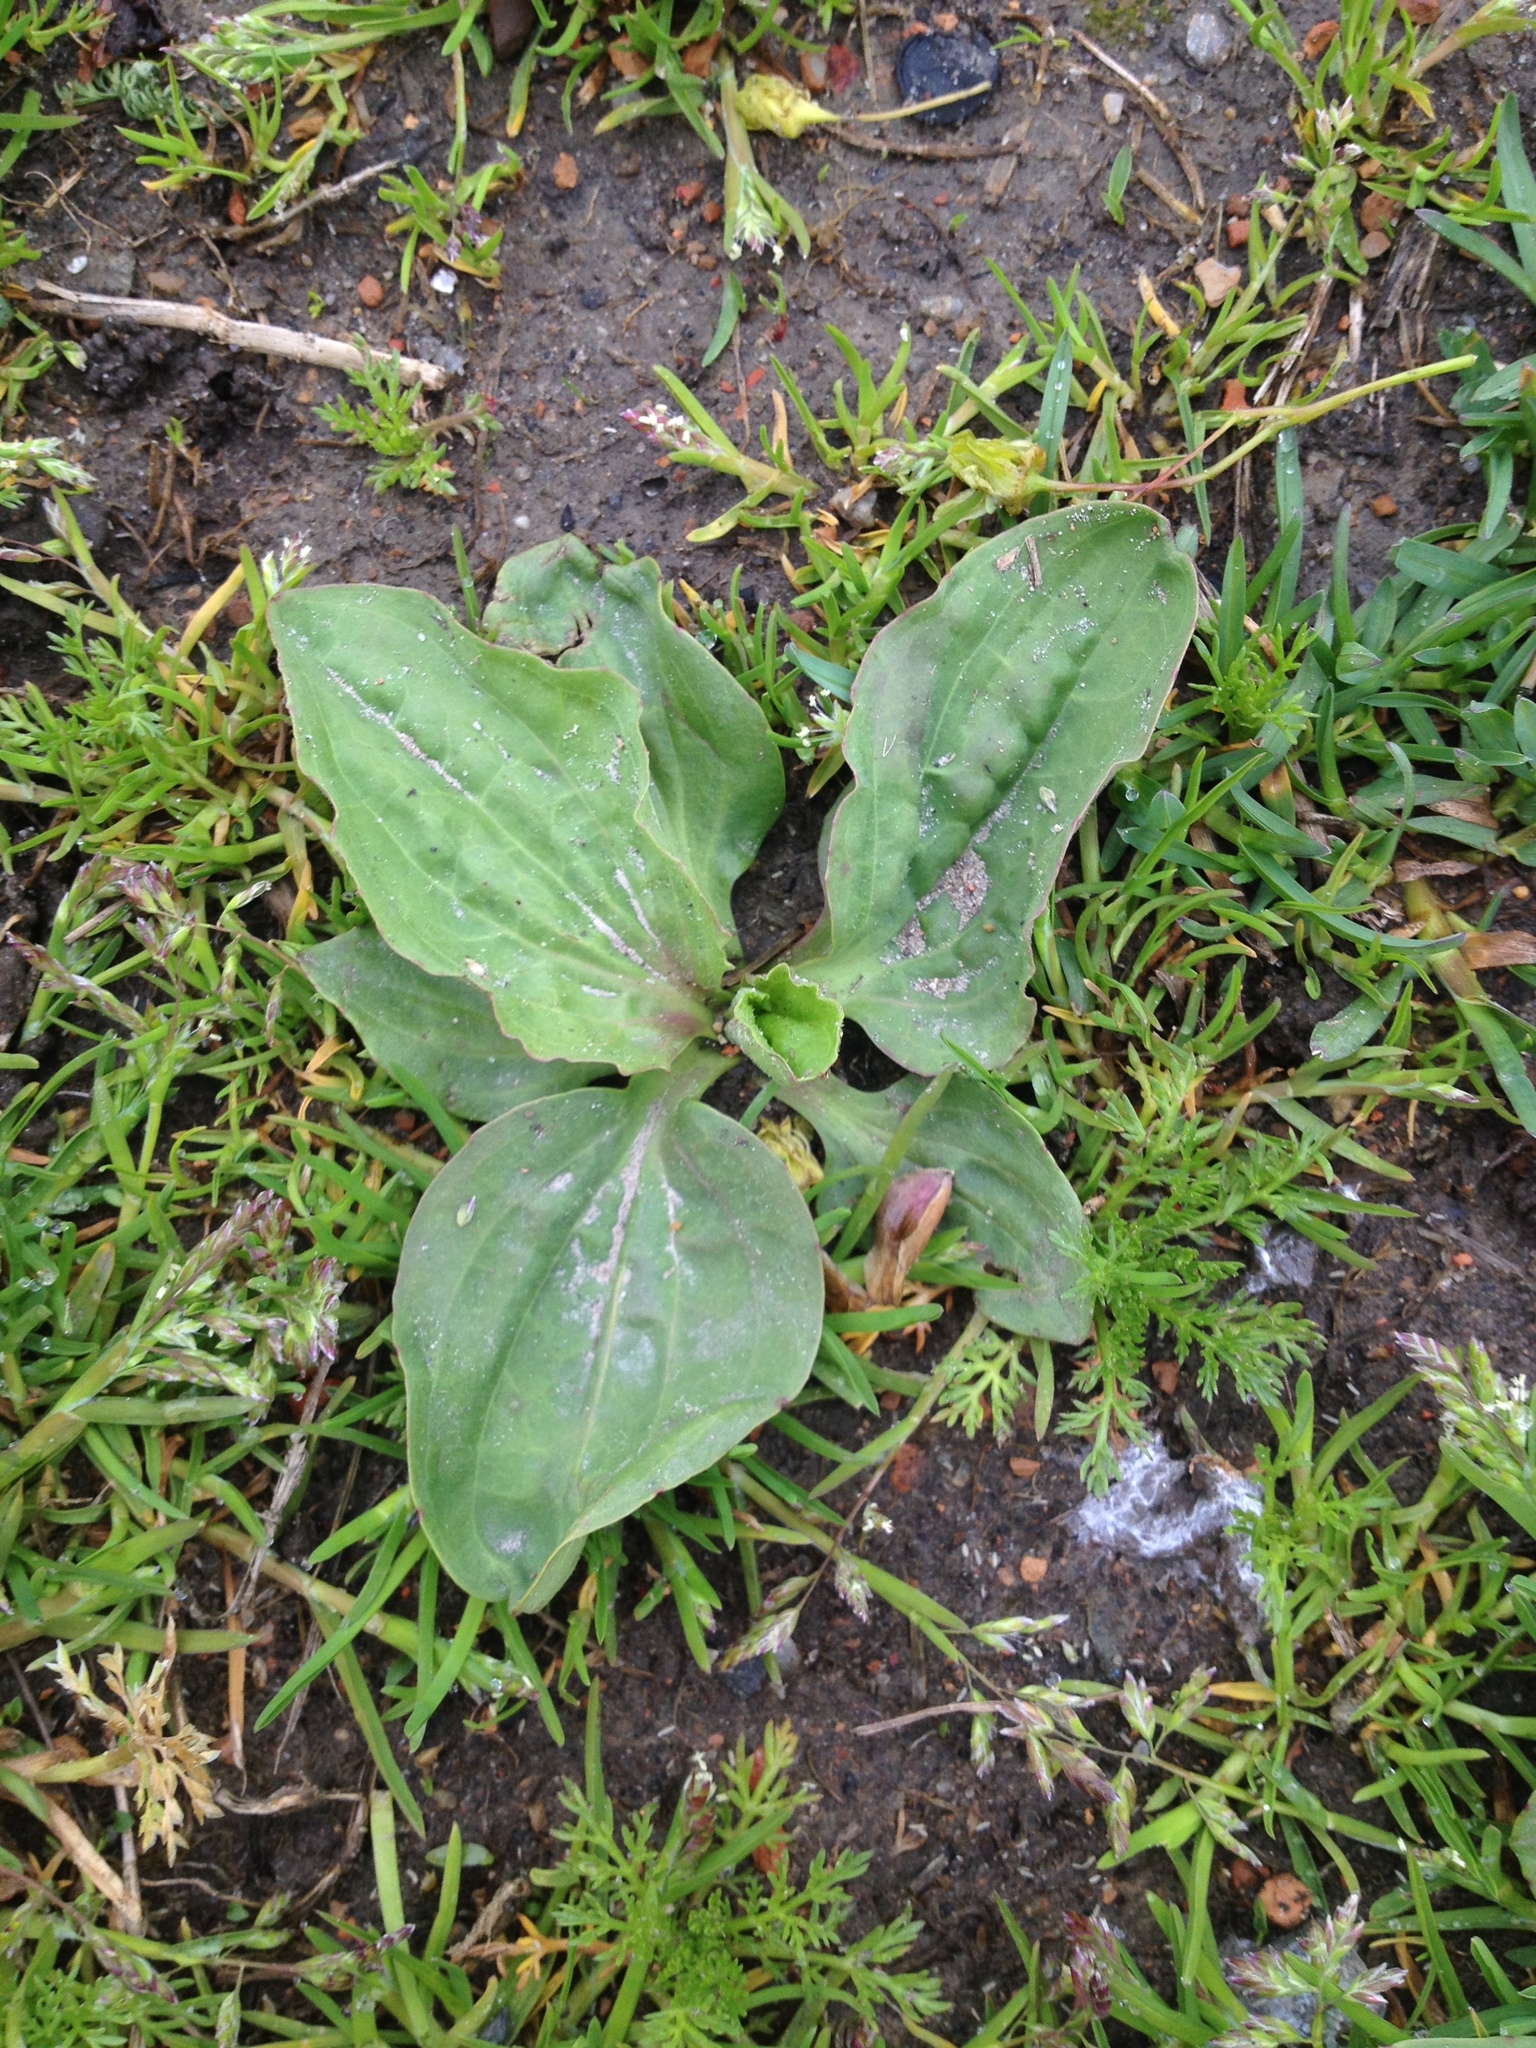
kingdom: Plantae
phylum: Tracheophyta
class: Magnoliopsida
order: Lamiales
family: Plantaginaceae
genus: Plantago
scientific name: Plantago rugelii
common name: American plantain
